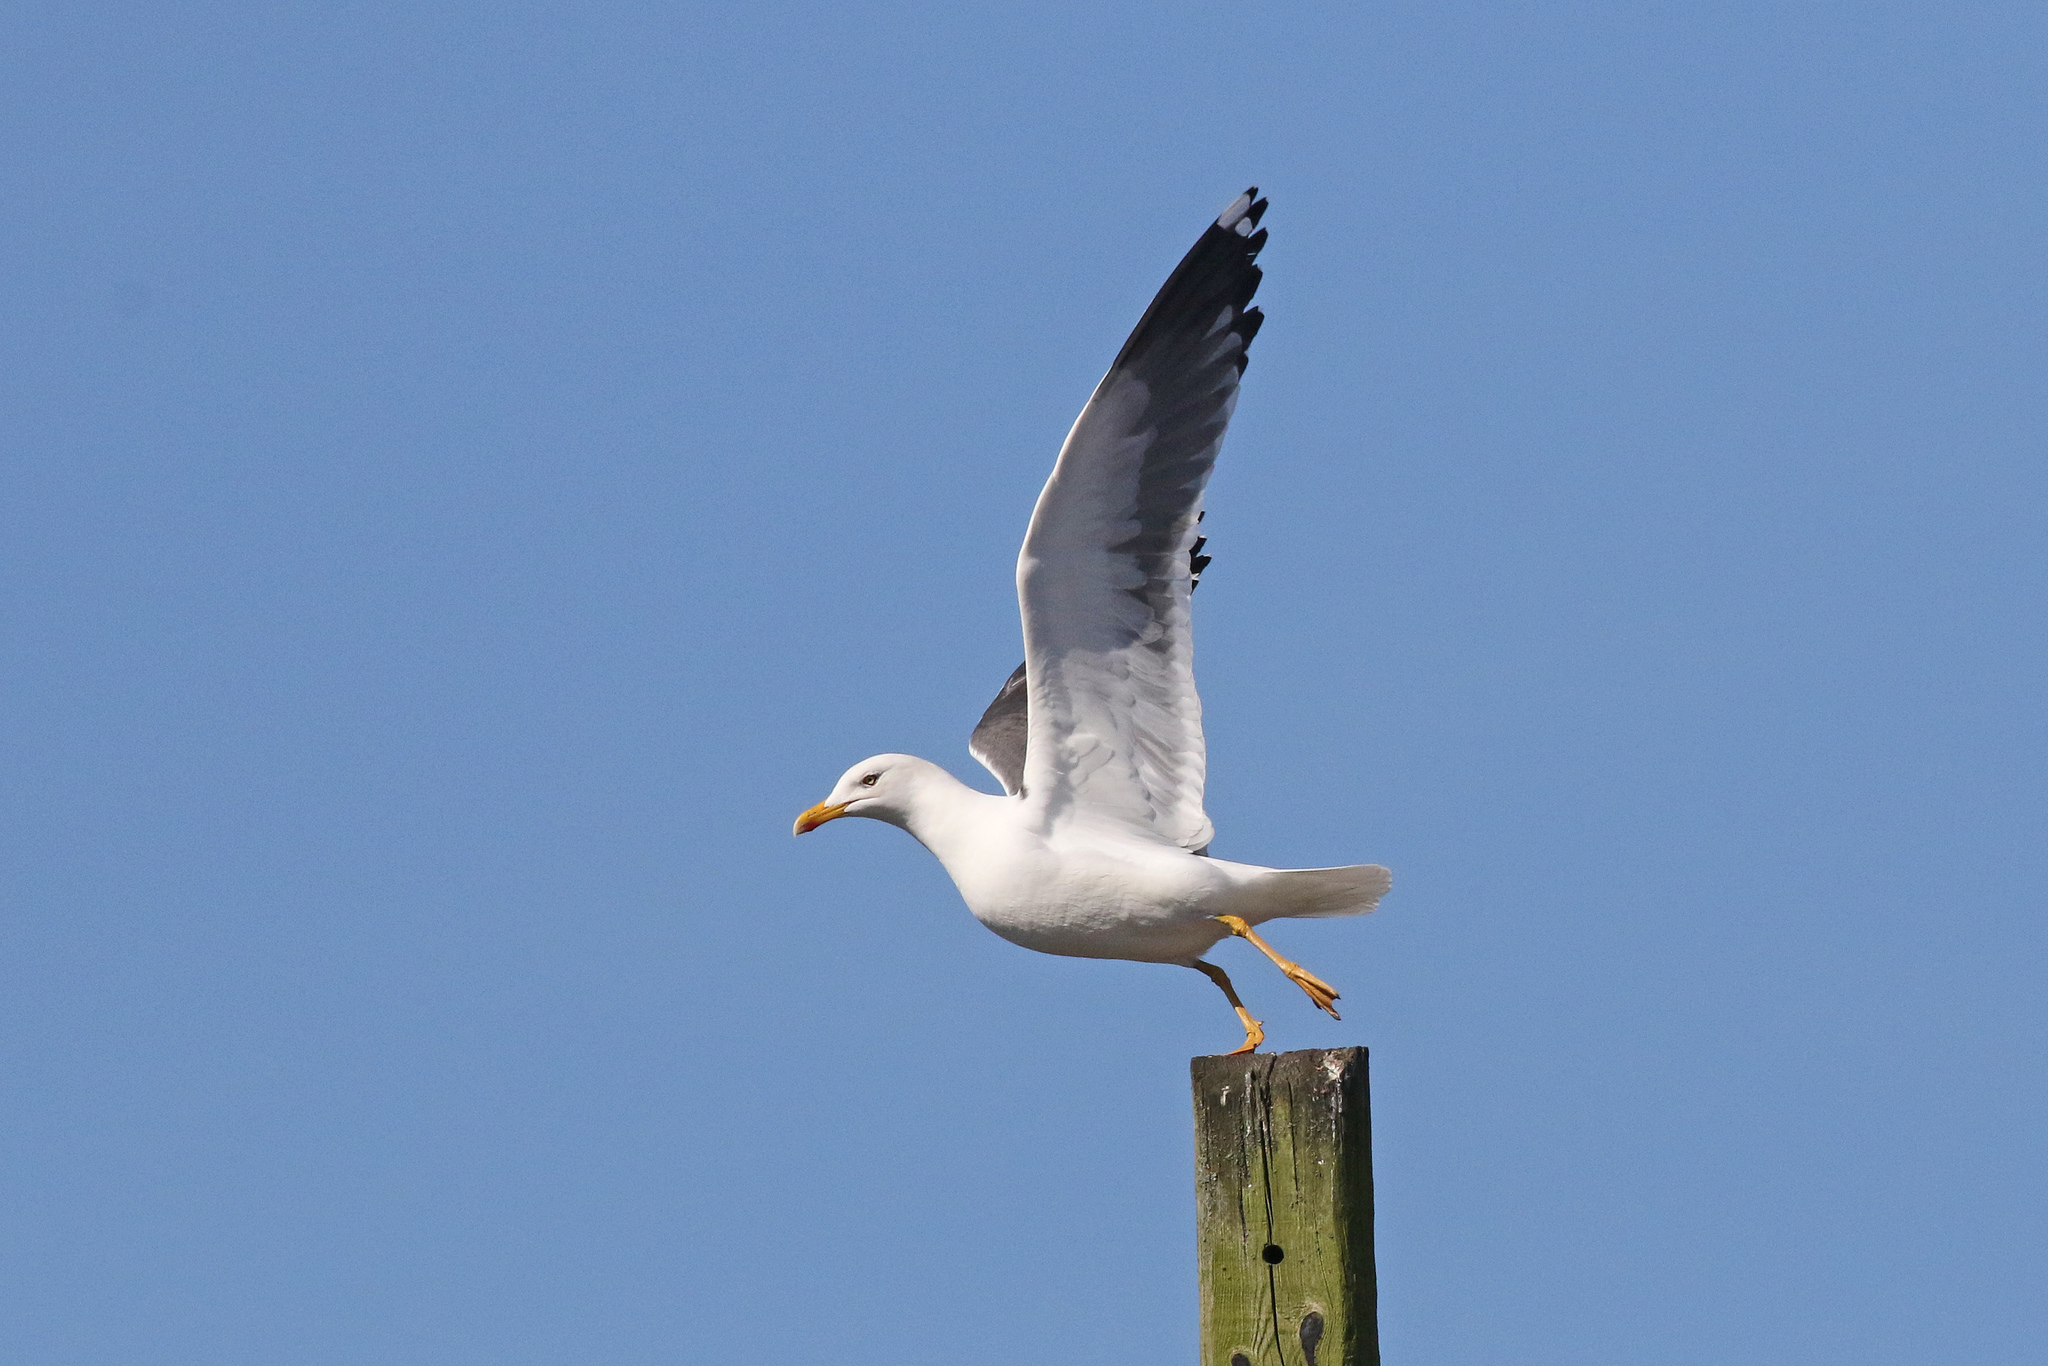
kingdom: Animalia
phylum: Chordata
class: Aves
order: Charadriiformes
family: Laridae
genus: Larus
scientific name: Larus fuscus
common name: Lesser black-backed gull
